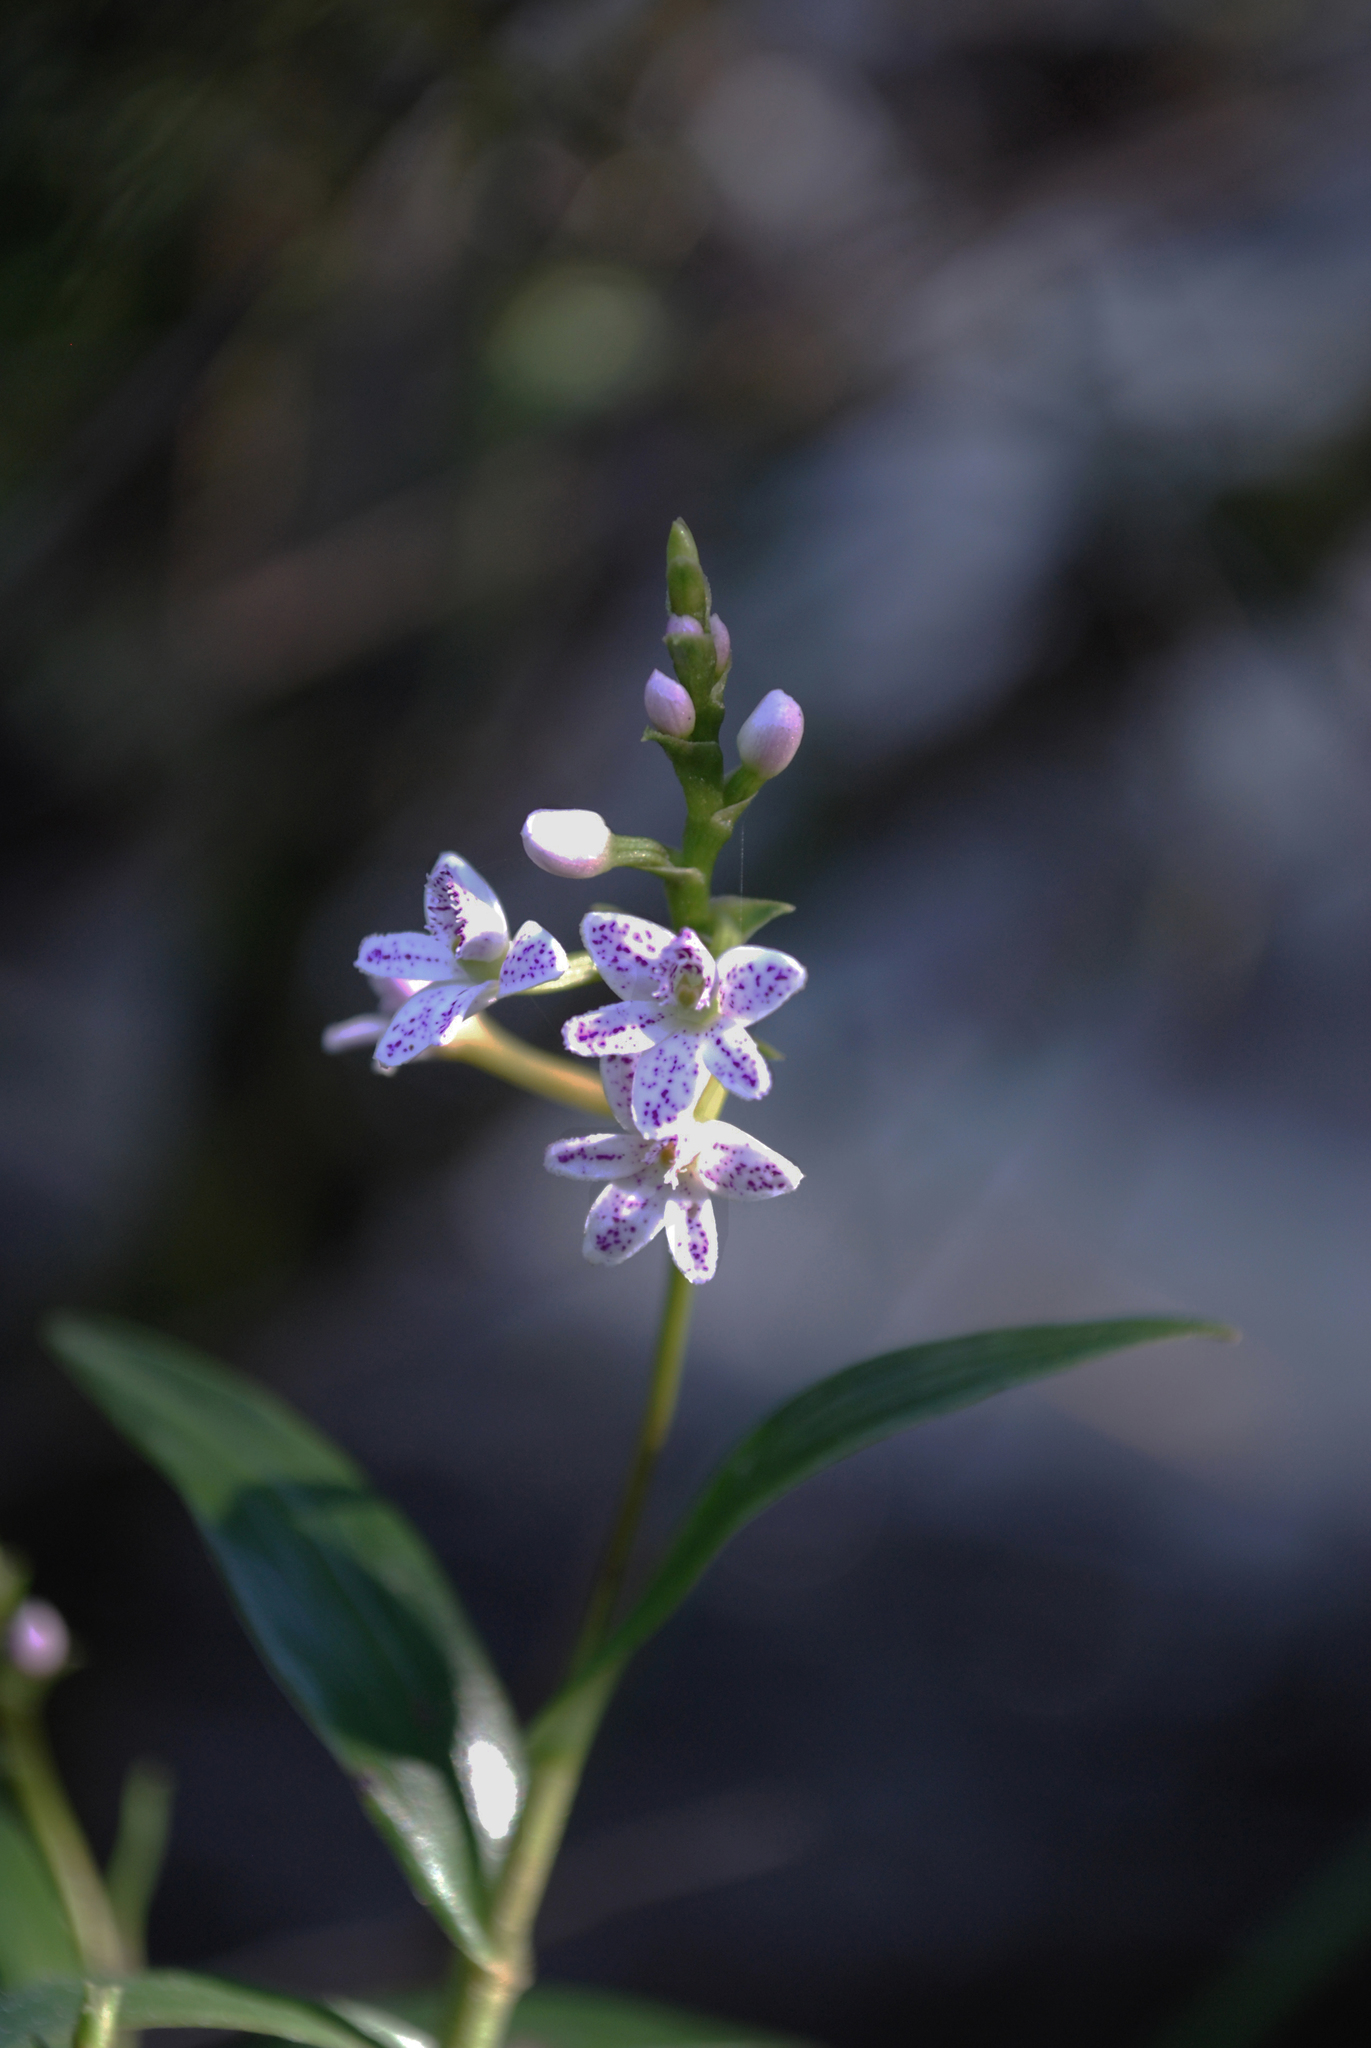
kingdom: Plantae
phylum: Tracheophyta
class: Liliopsida
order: Asparagales
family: Orchidaceae
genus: Epidendrum
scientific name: Epidendrum fimbriatum
